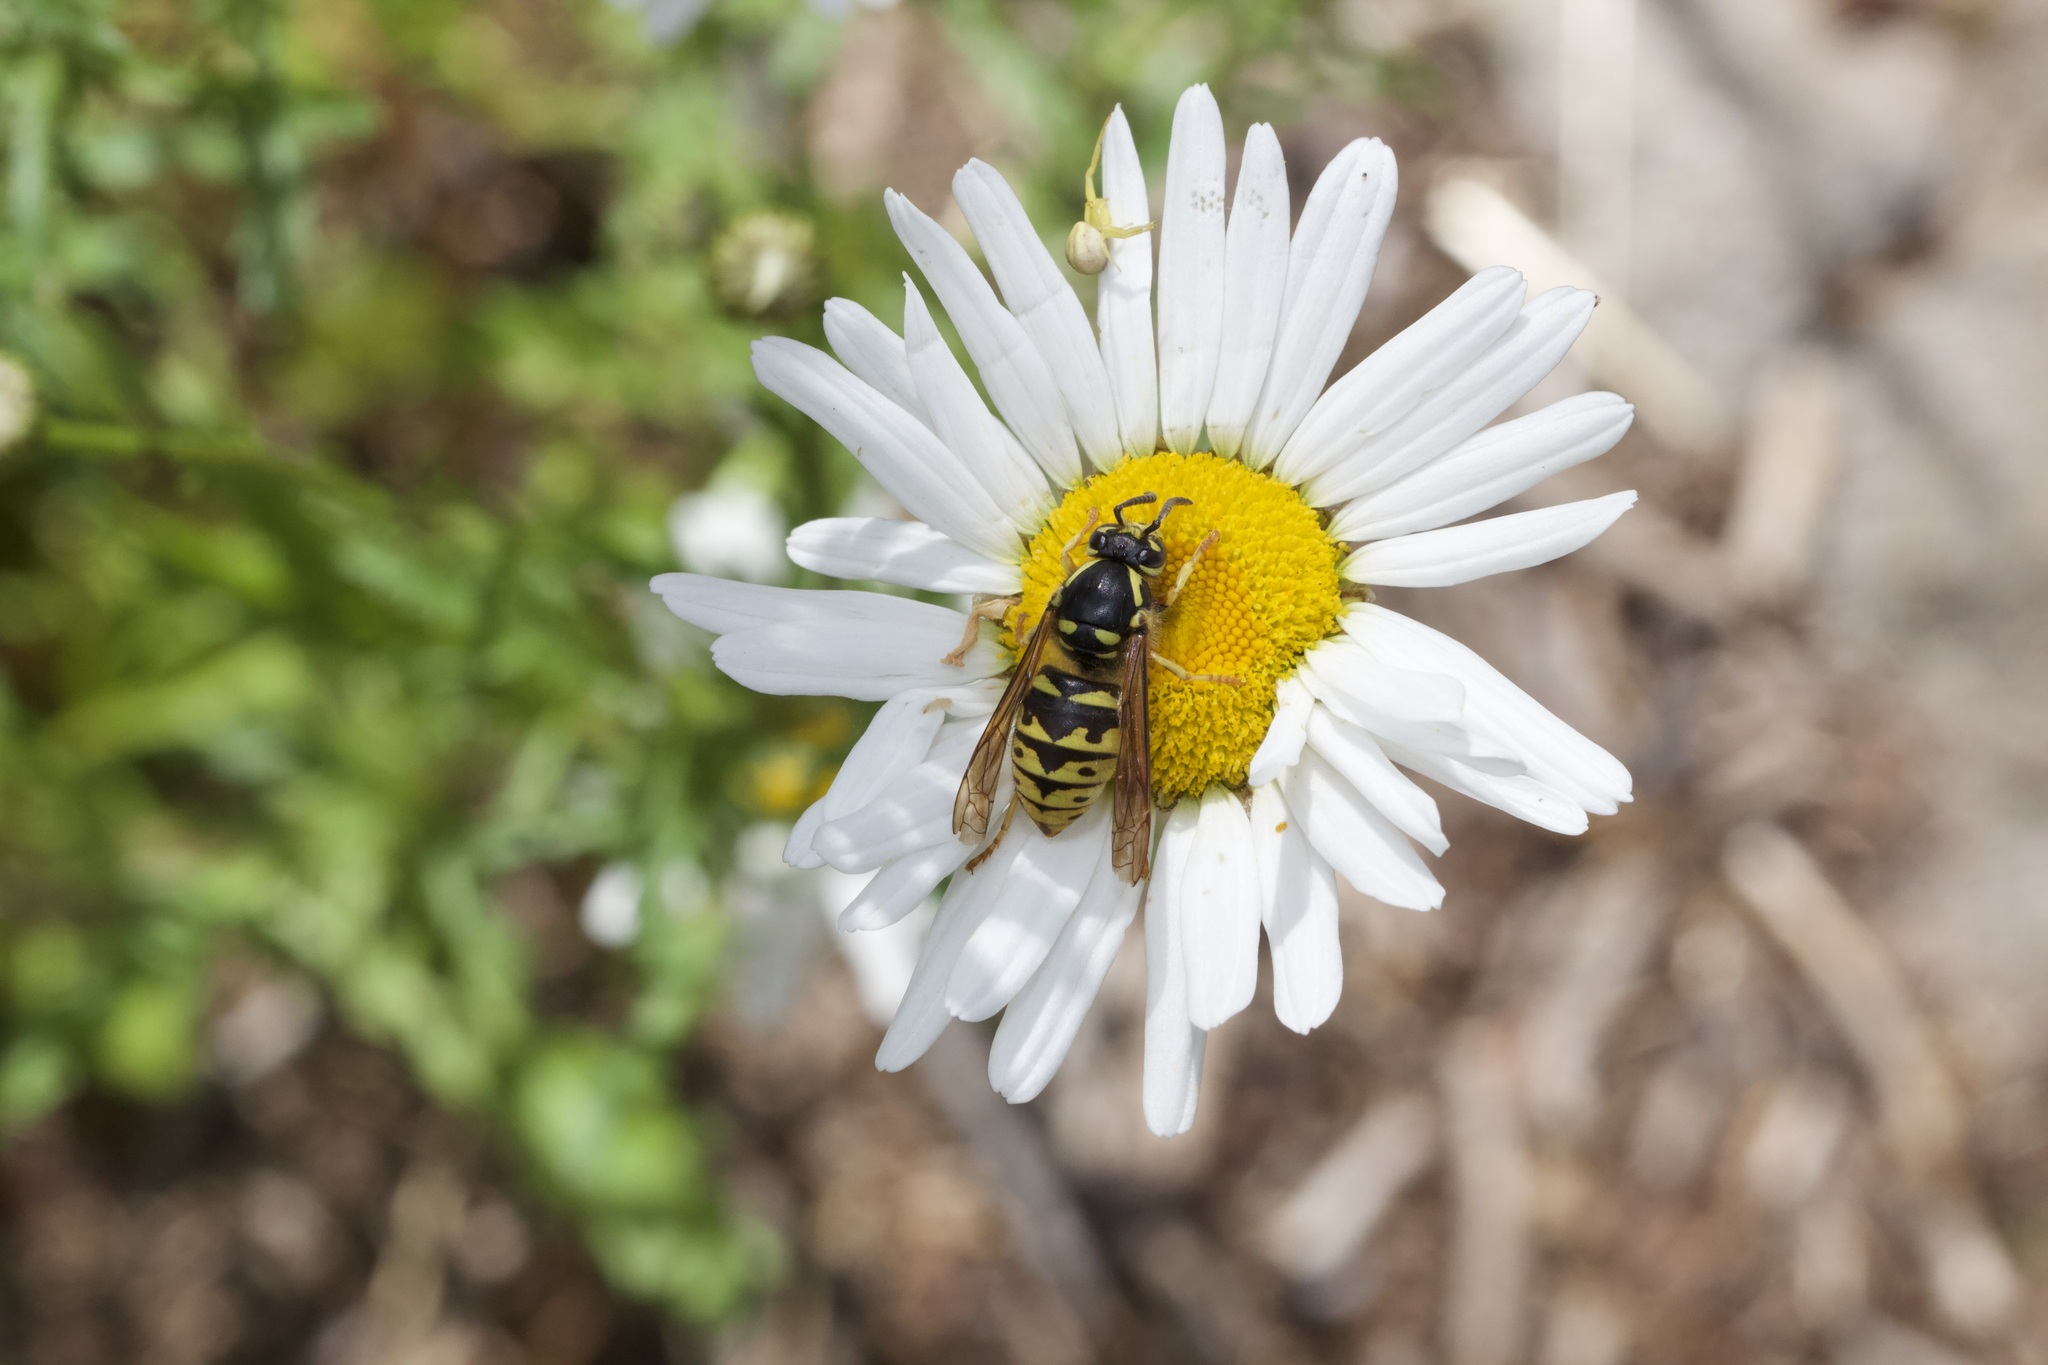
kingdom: Animalia
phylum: Arthropoda
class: Insecta
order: Hymenoptera
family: Vespidae
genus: Dolichovespula
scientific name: Dolichovespula arenaria
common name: Aerial yellowjacket
